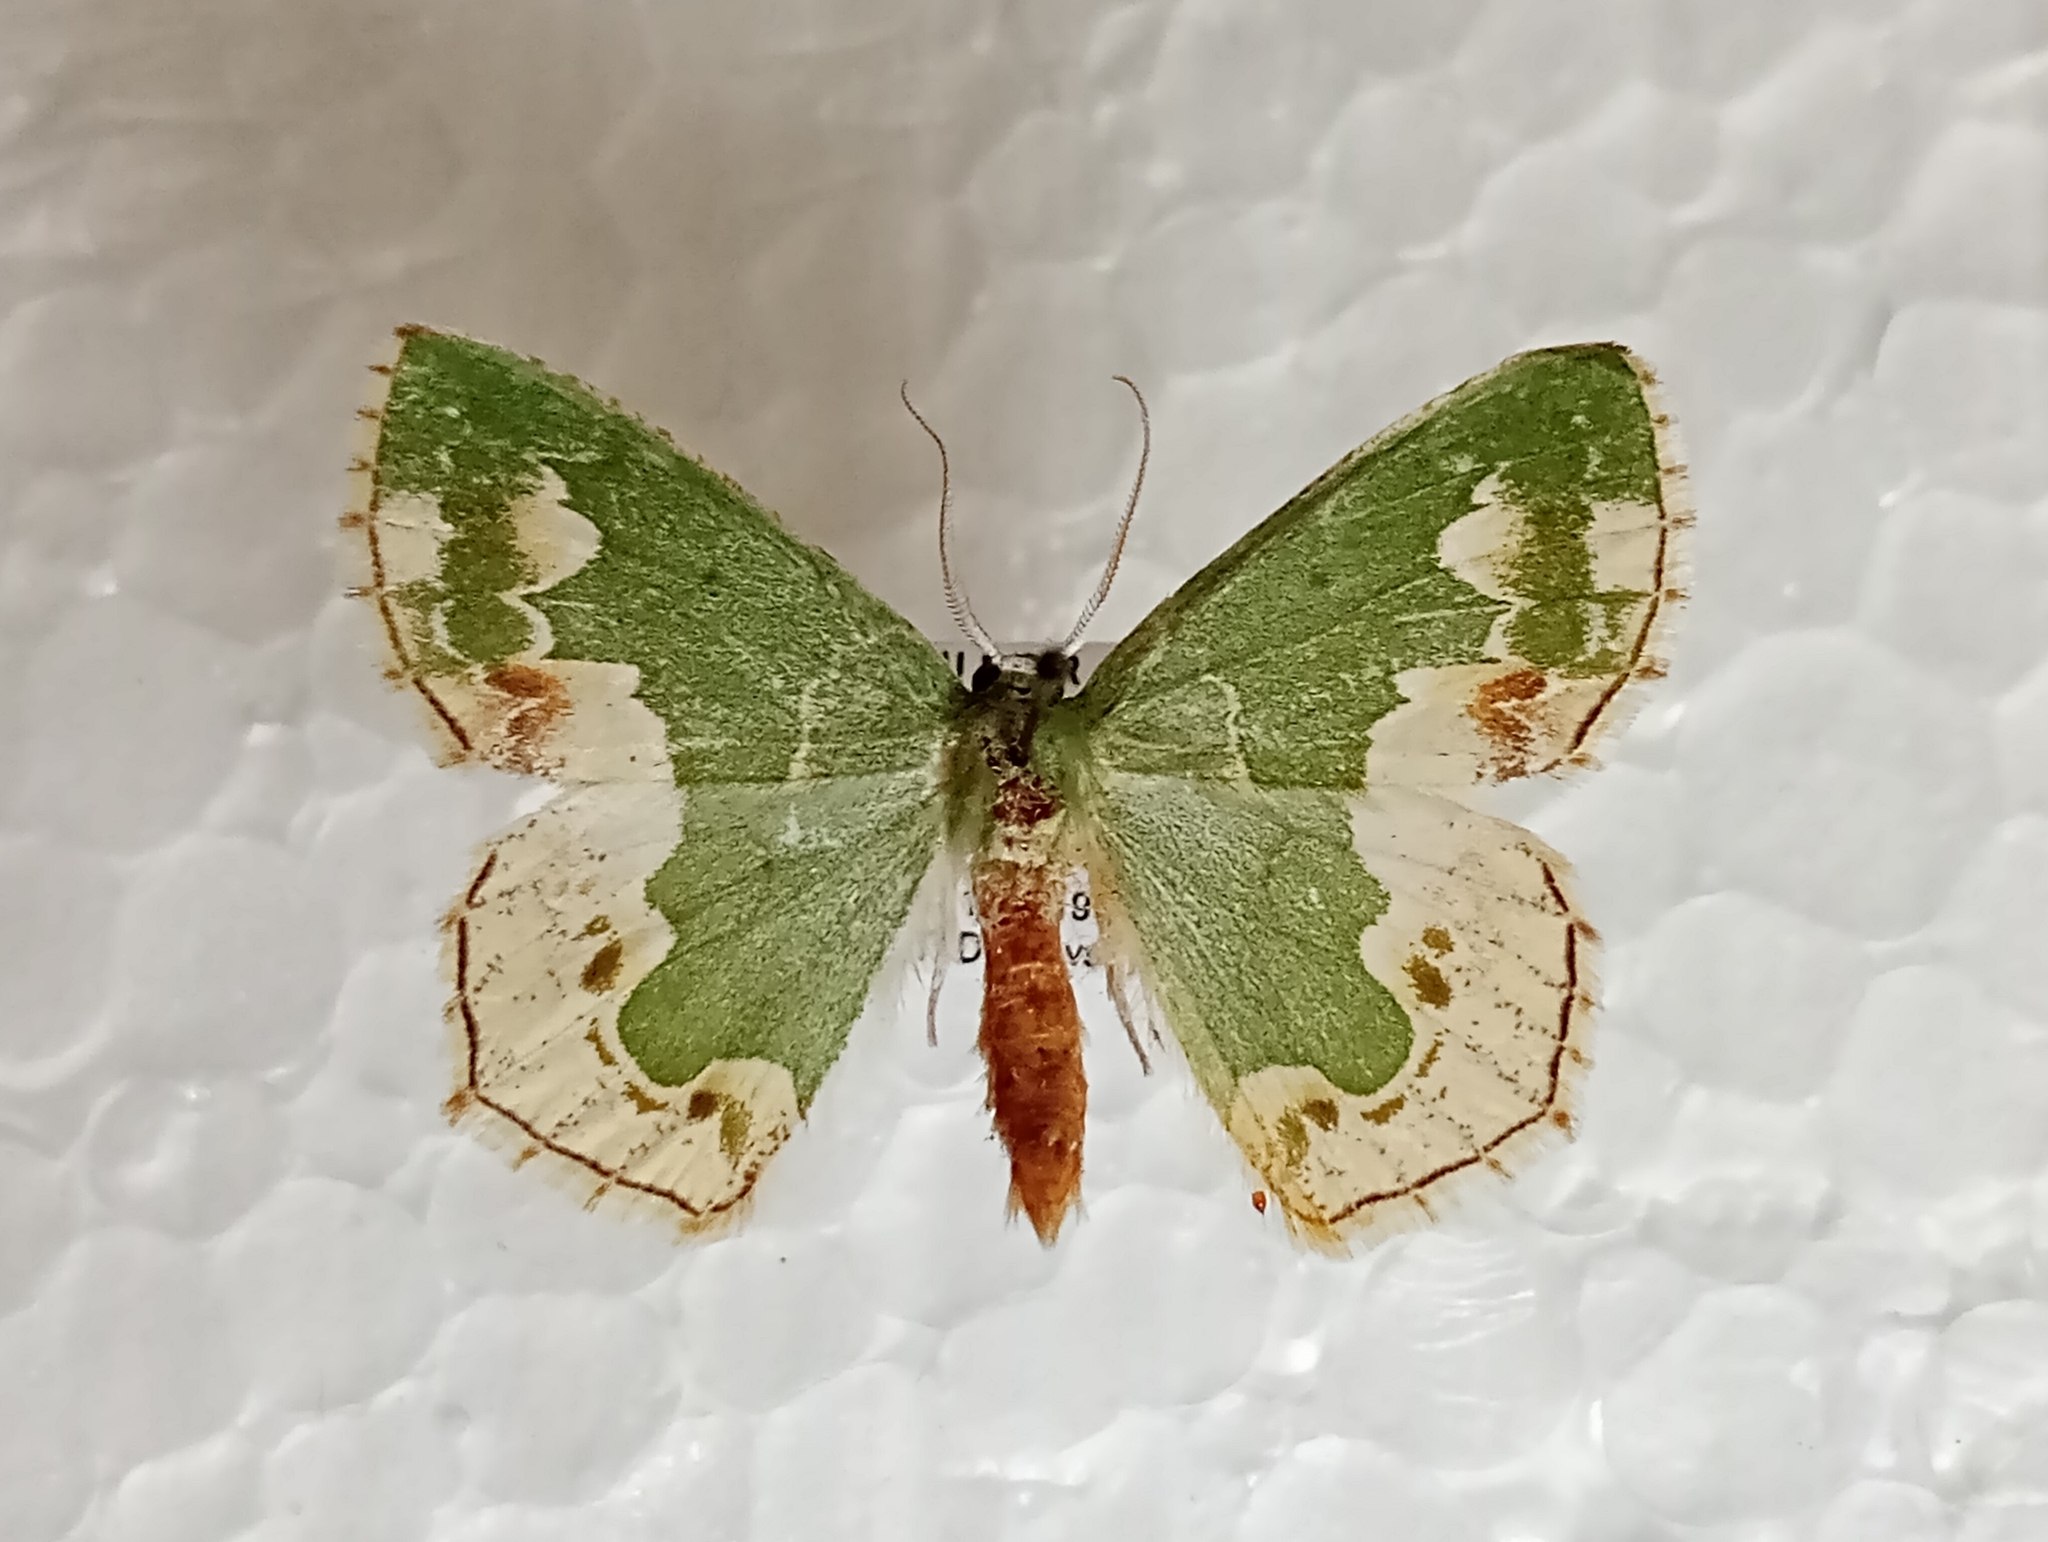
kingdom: Animalia
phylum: Arthropoda
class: Insecta
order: Lepidoptera
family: Geometridae
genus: Eucyclodes
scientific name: Eucyclodes difficta
